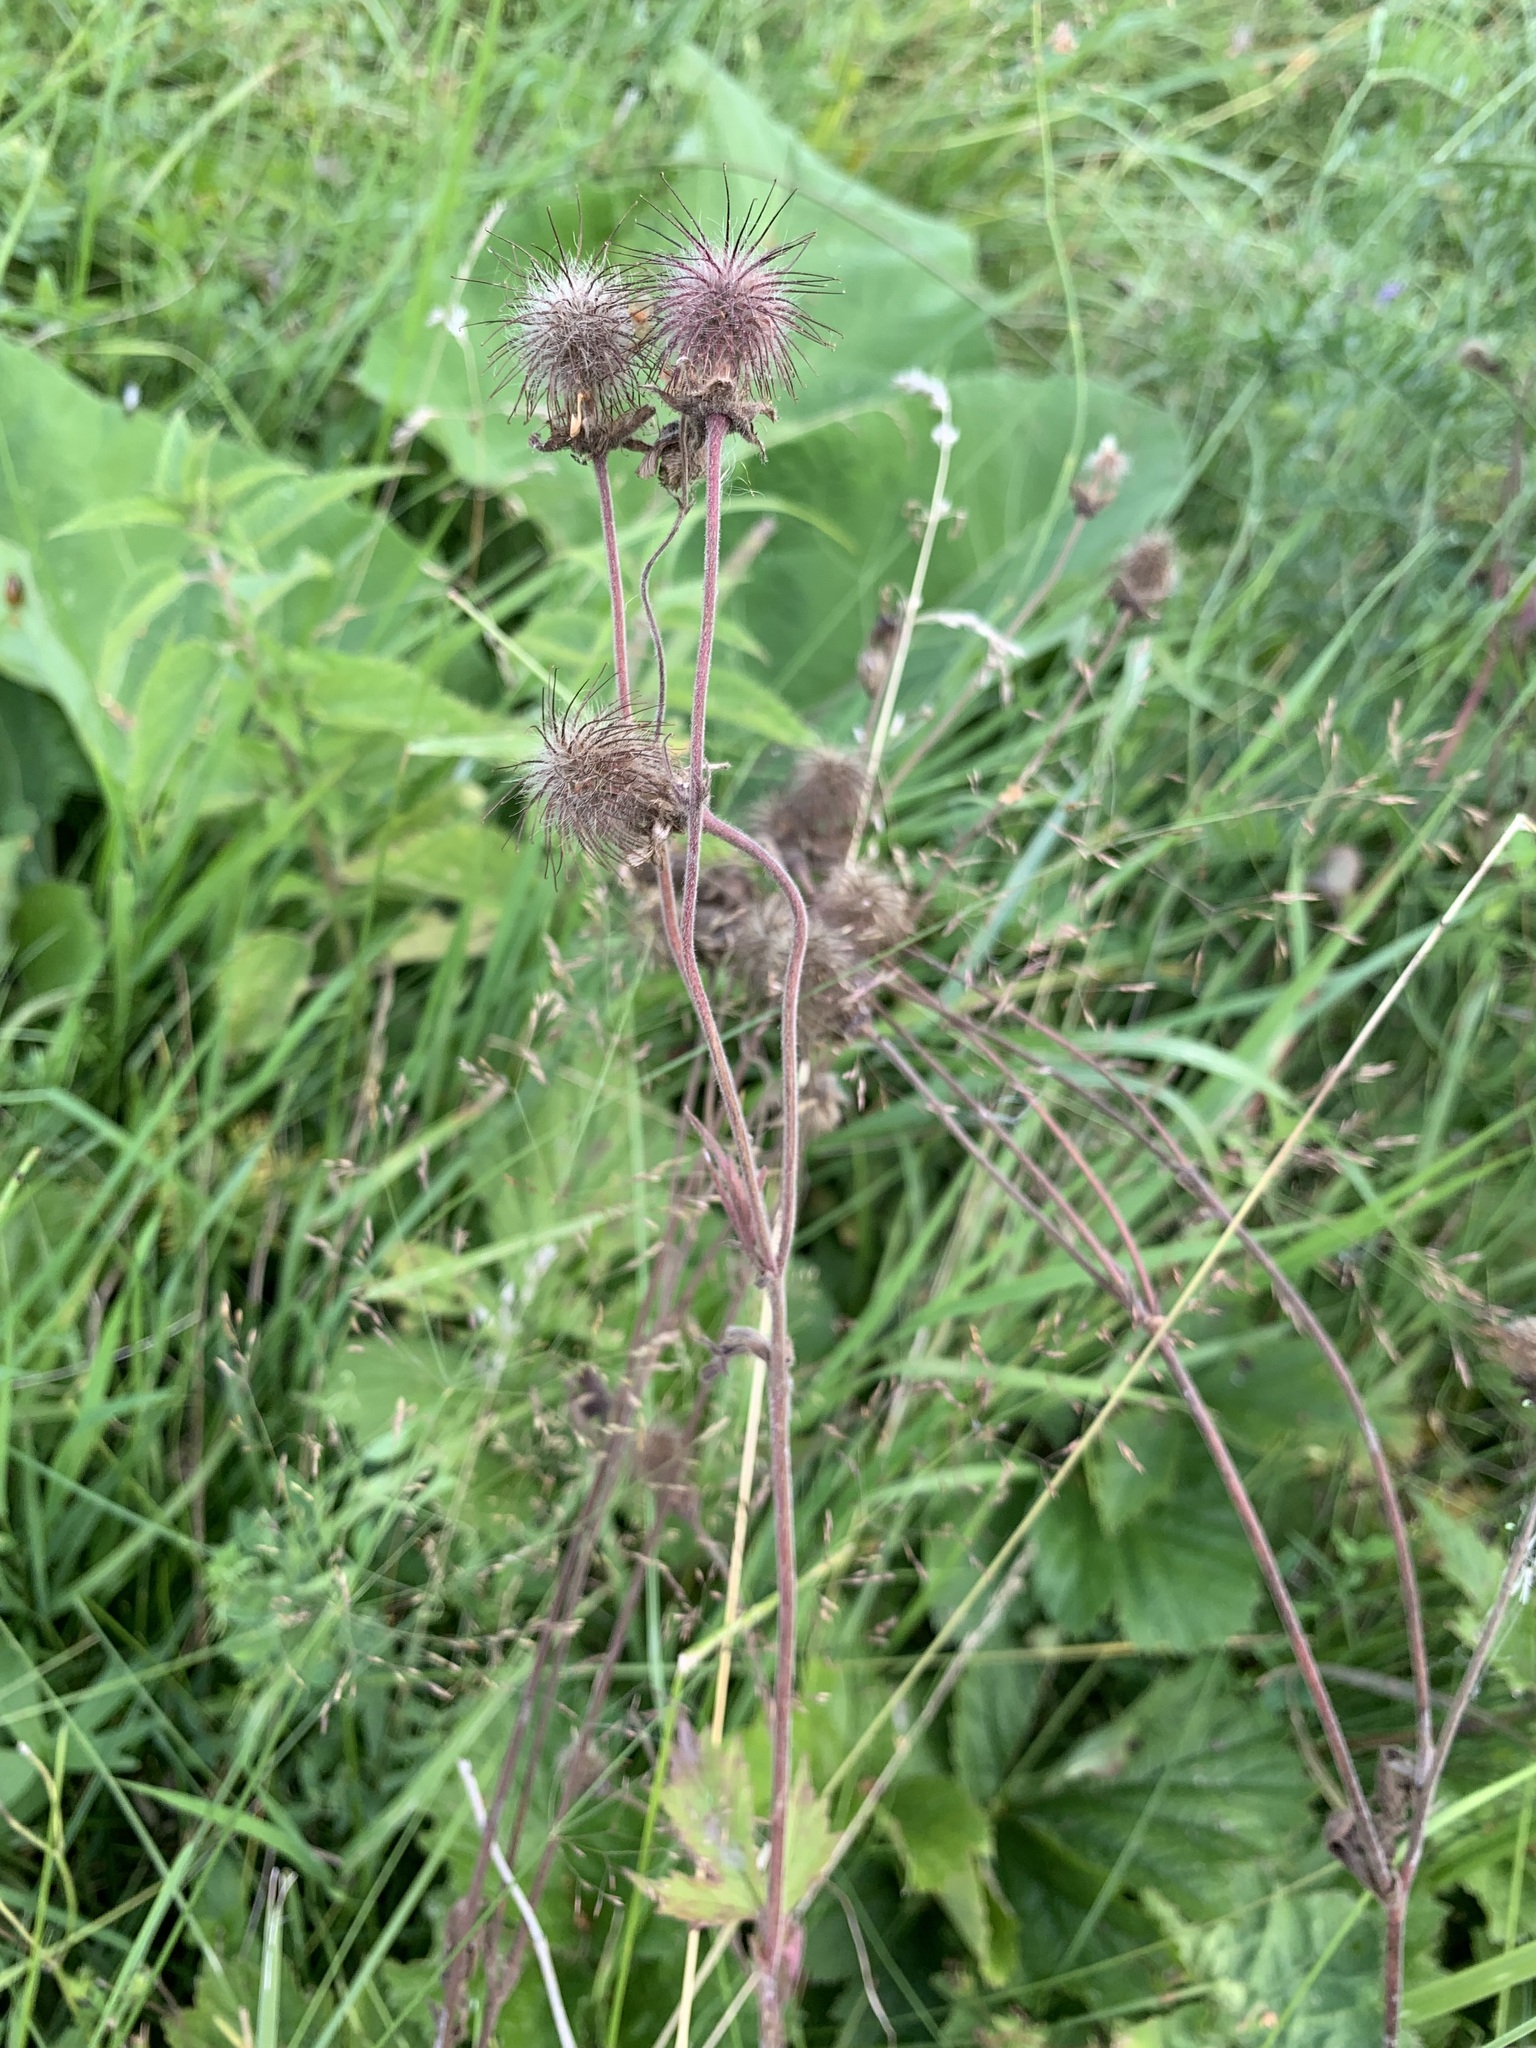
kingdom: Plantae
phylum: Tracheophyta
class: Magnoliopsida
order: Rosales
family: Rosaceae
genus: Geum
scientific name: Geum rivale
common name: Water avens
